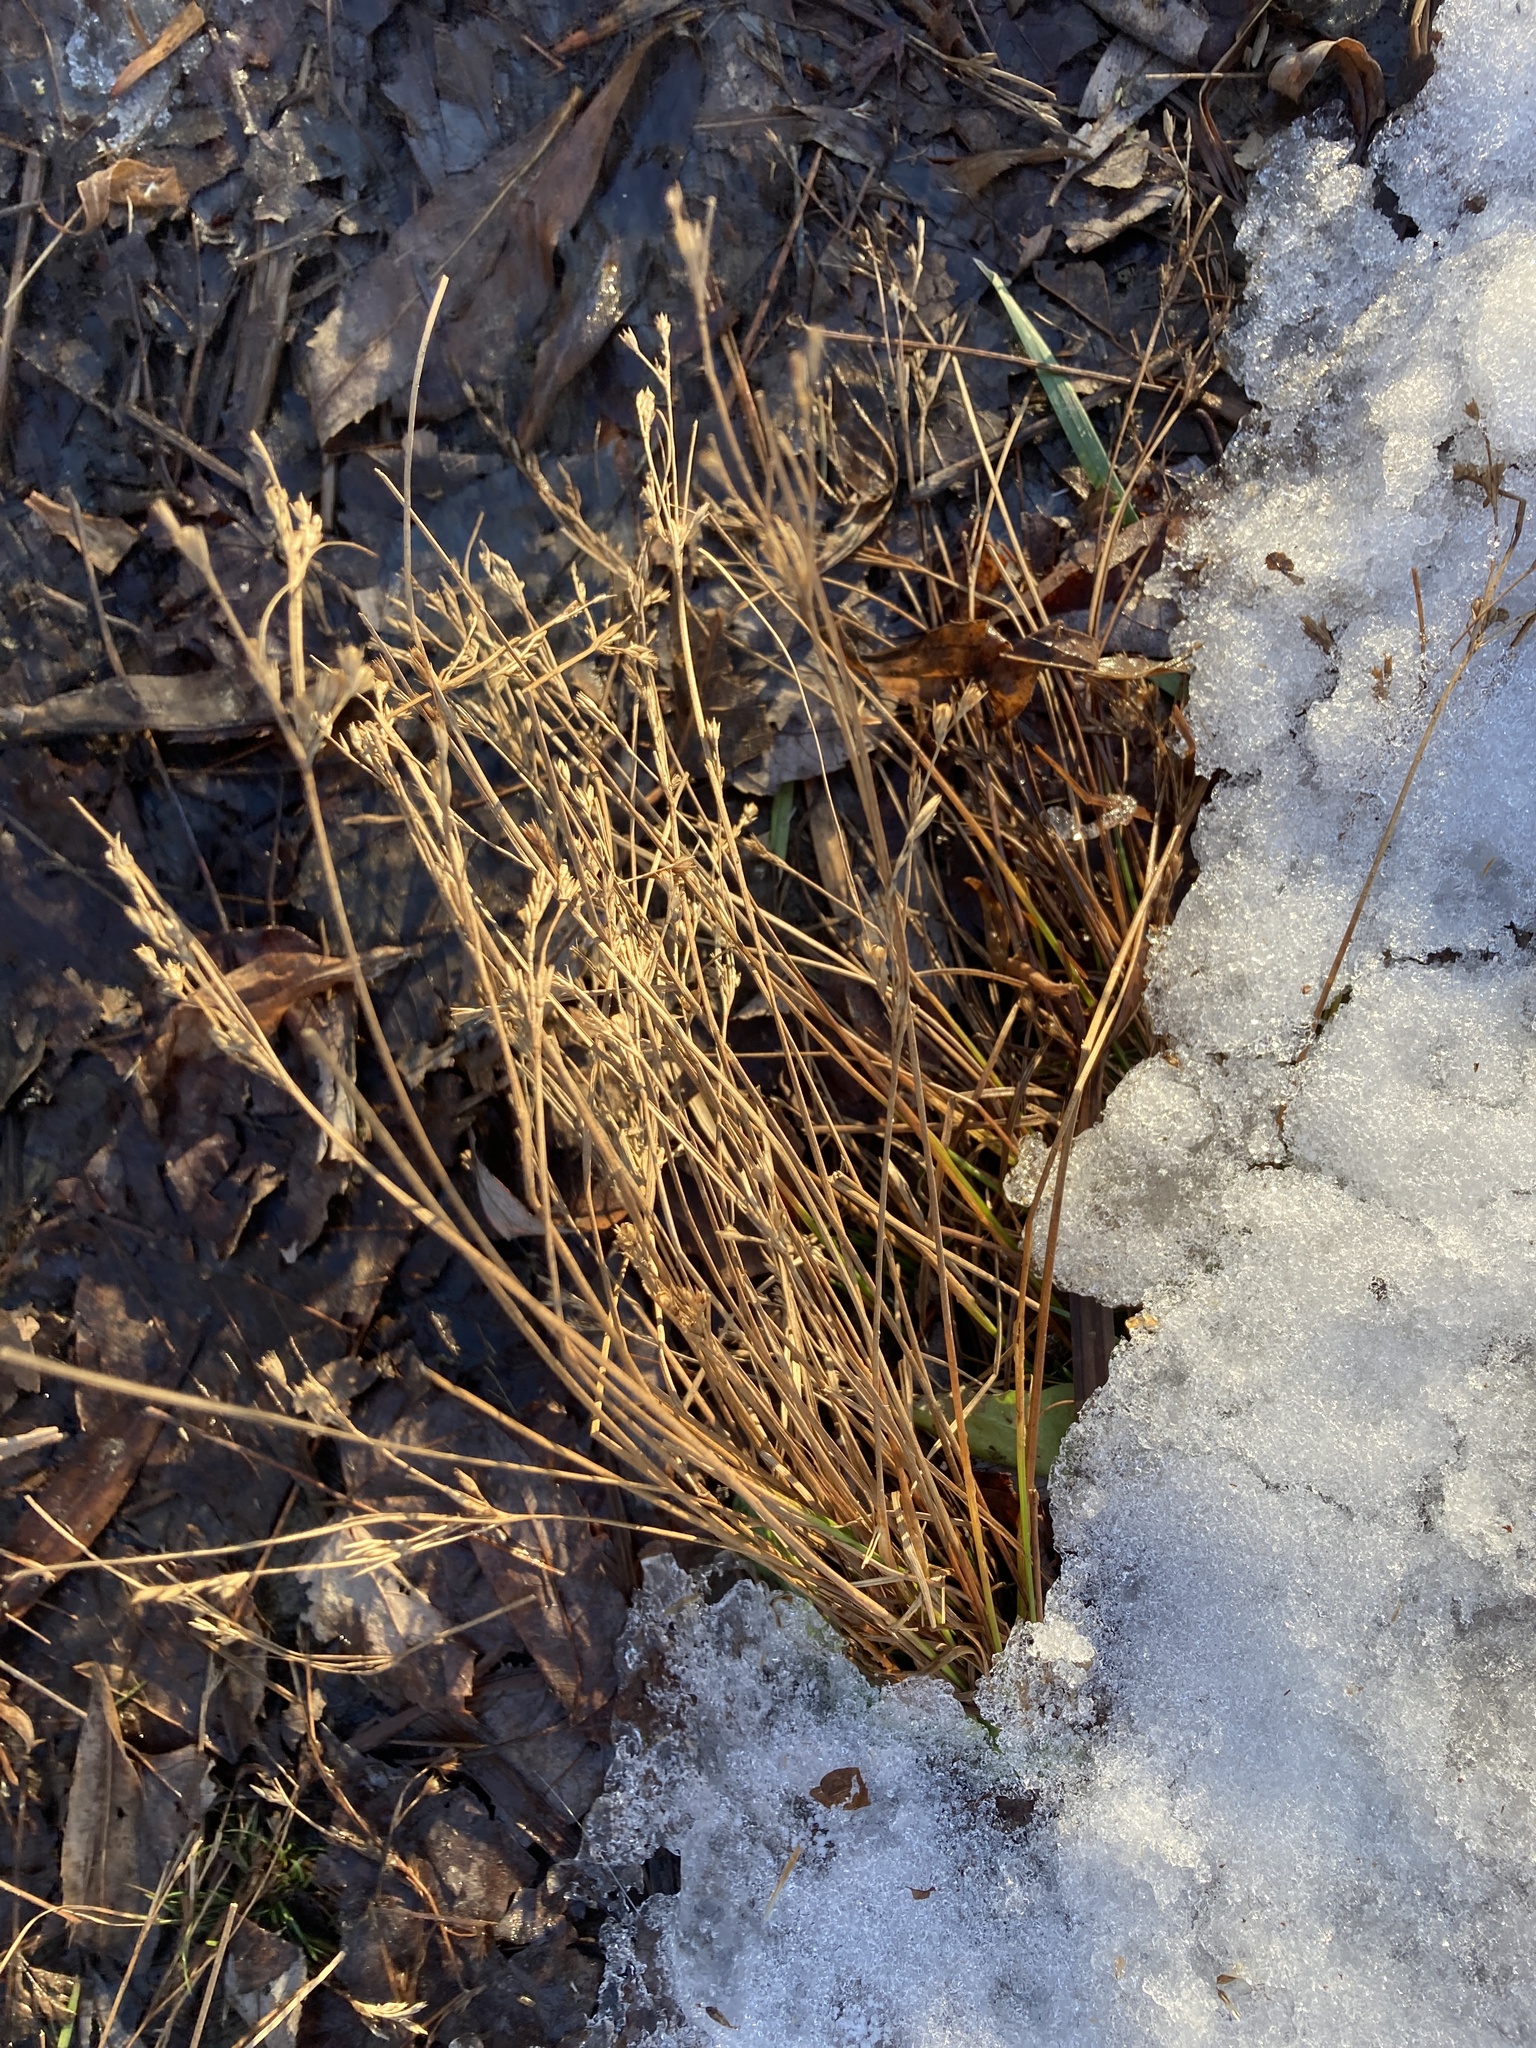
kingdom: Plantae
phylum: Tracheophyta
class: Liliopsida
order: Poales
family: Juncaceae
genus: Juncus
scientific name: Juncus tenuis
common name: Slender rush
